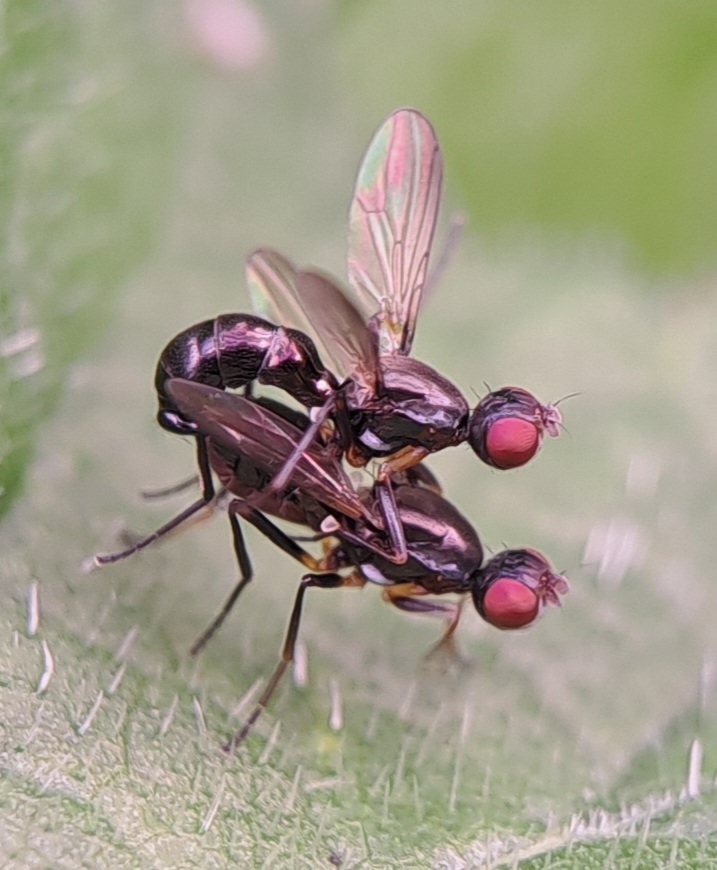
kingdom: Animalia
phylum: Arthropoda
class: Insecta
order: Diptera
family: Sepsidae
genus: Nemopoda
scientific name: Nemopoda nitidula
